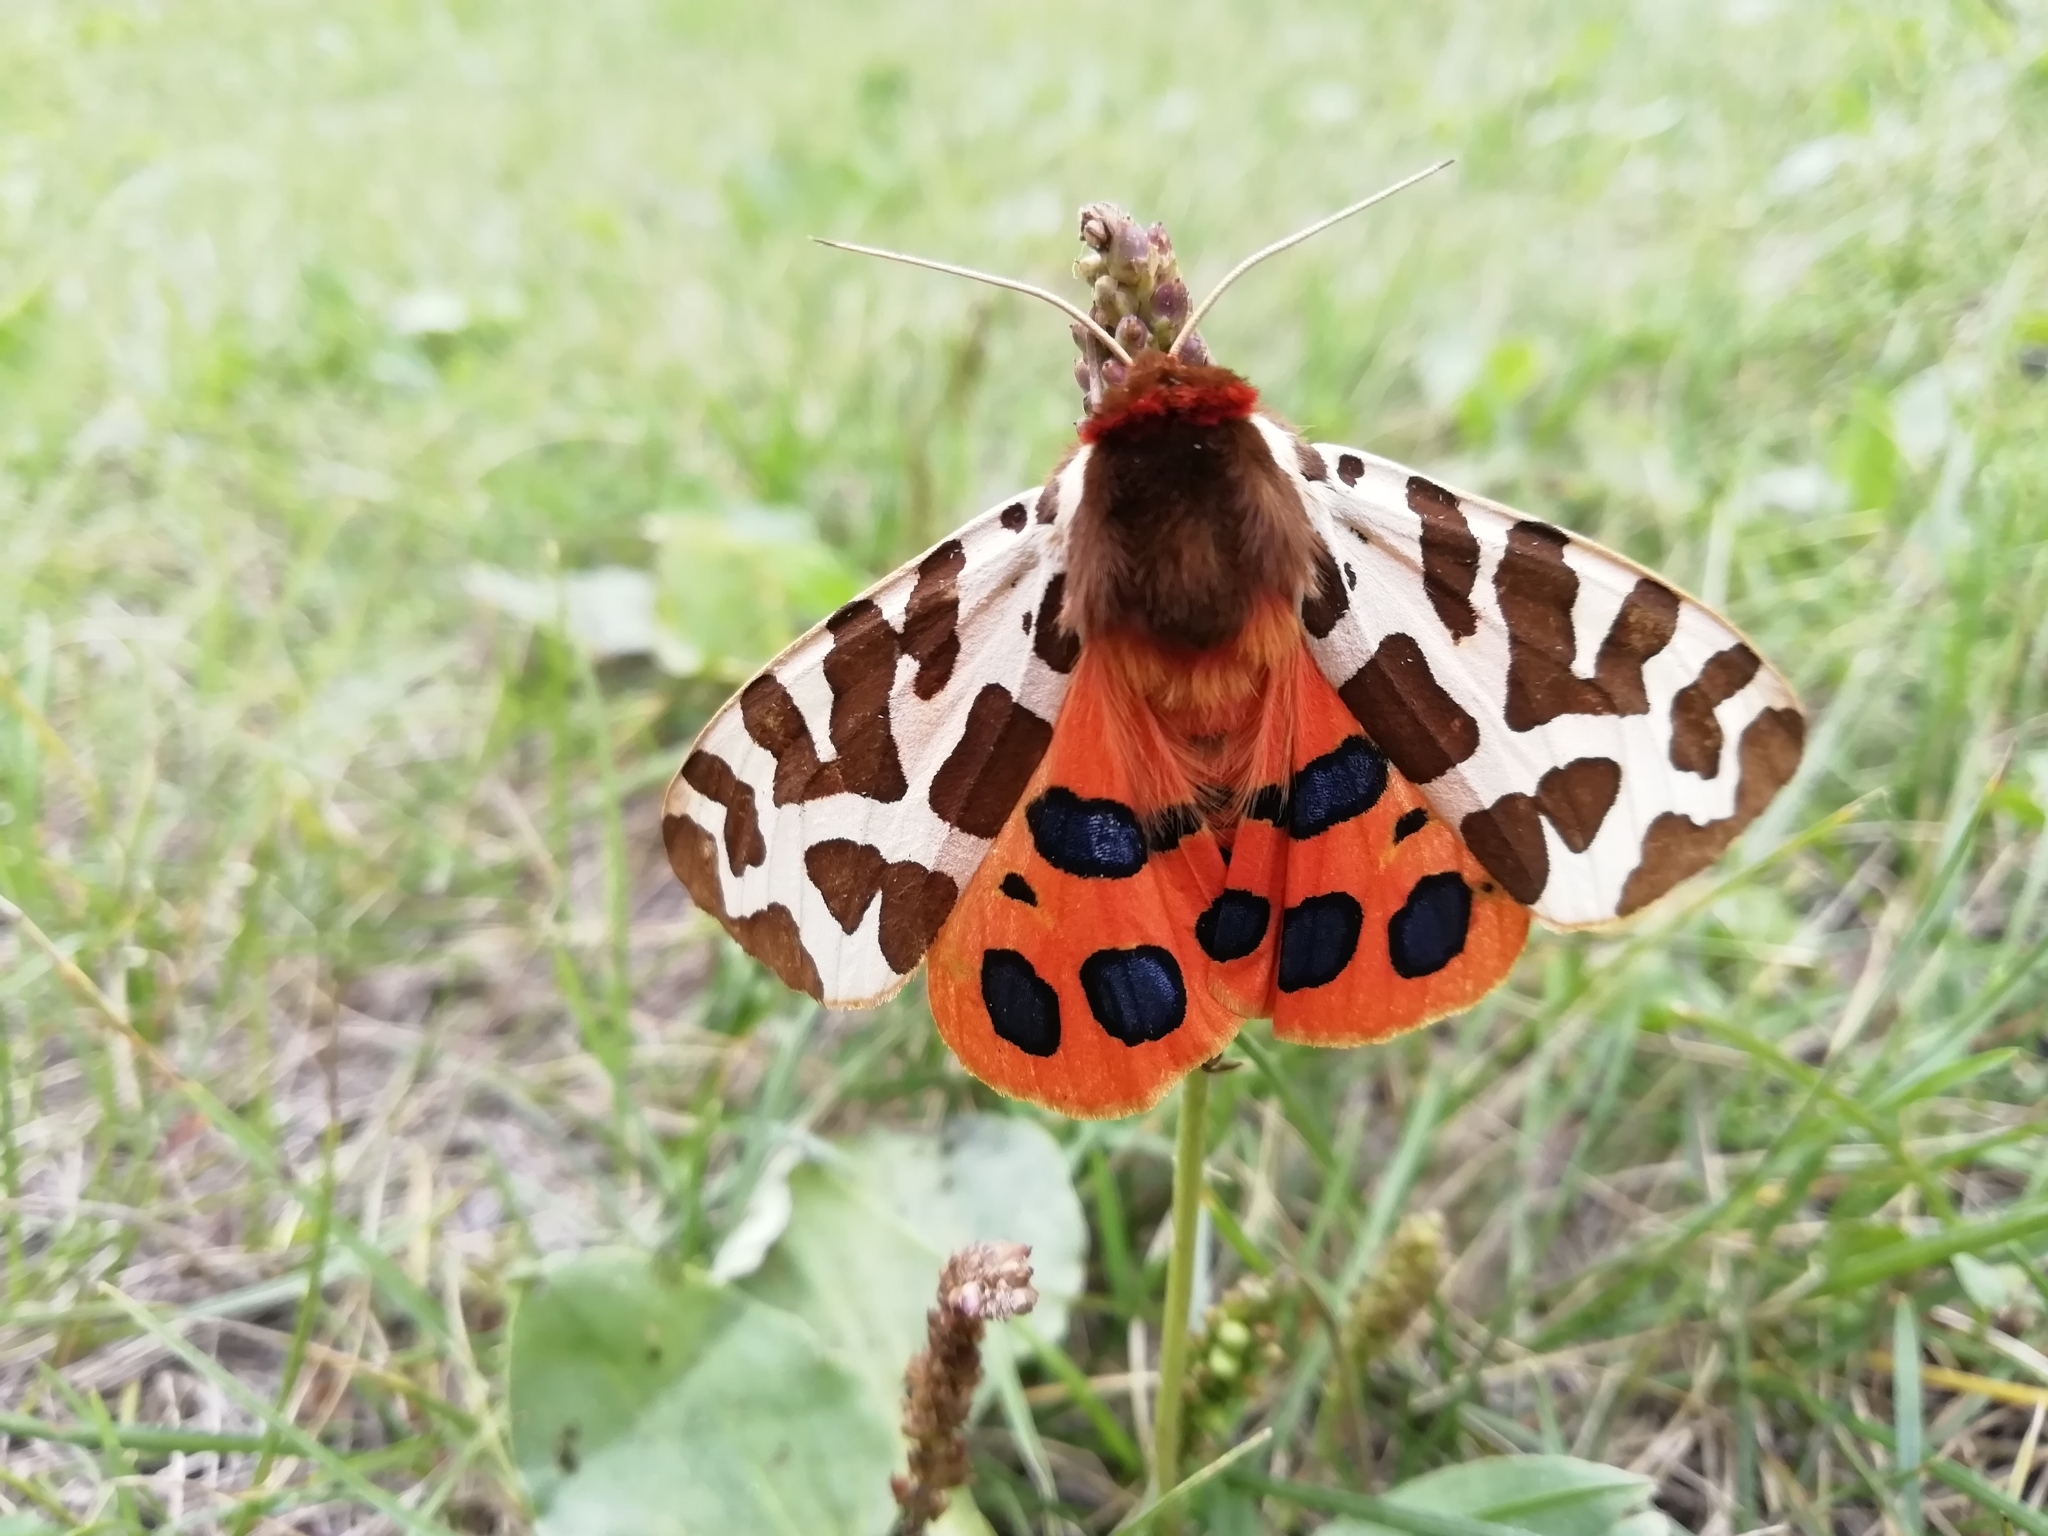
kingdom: Animalia
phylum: Arthropoda
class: Insecta
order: Lepidoptera
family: Erebidae
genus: Arctia
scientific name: Arctia caja
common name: Garden tiger
